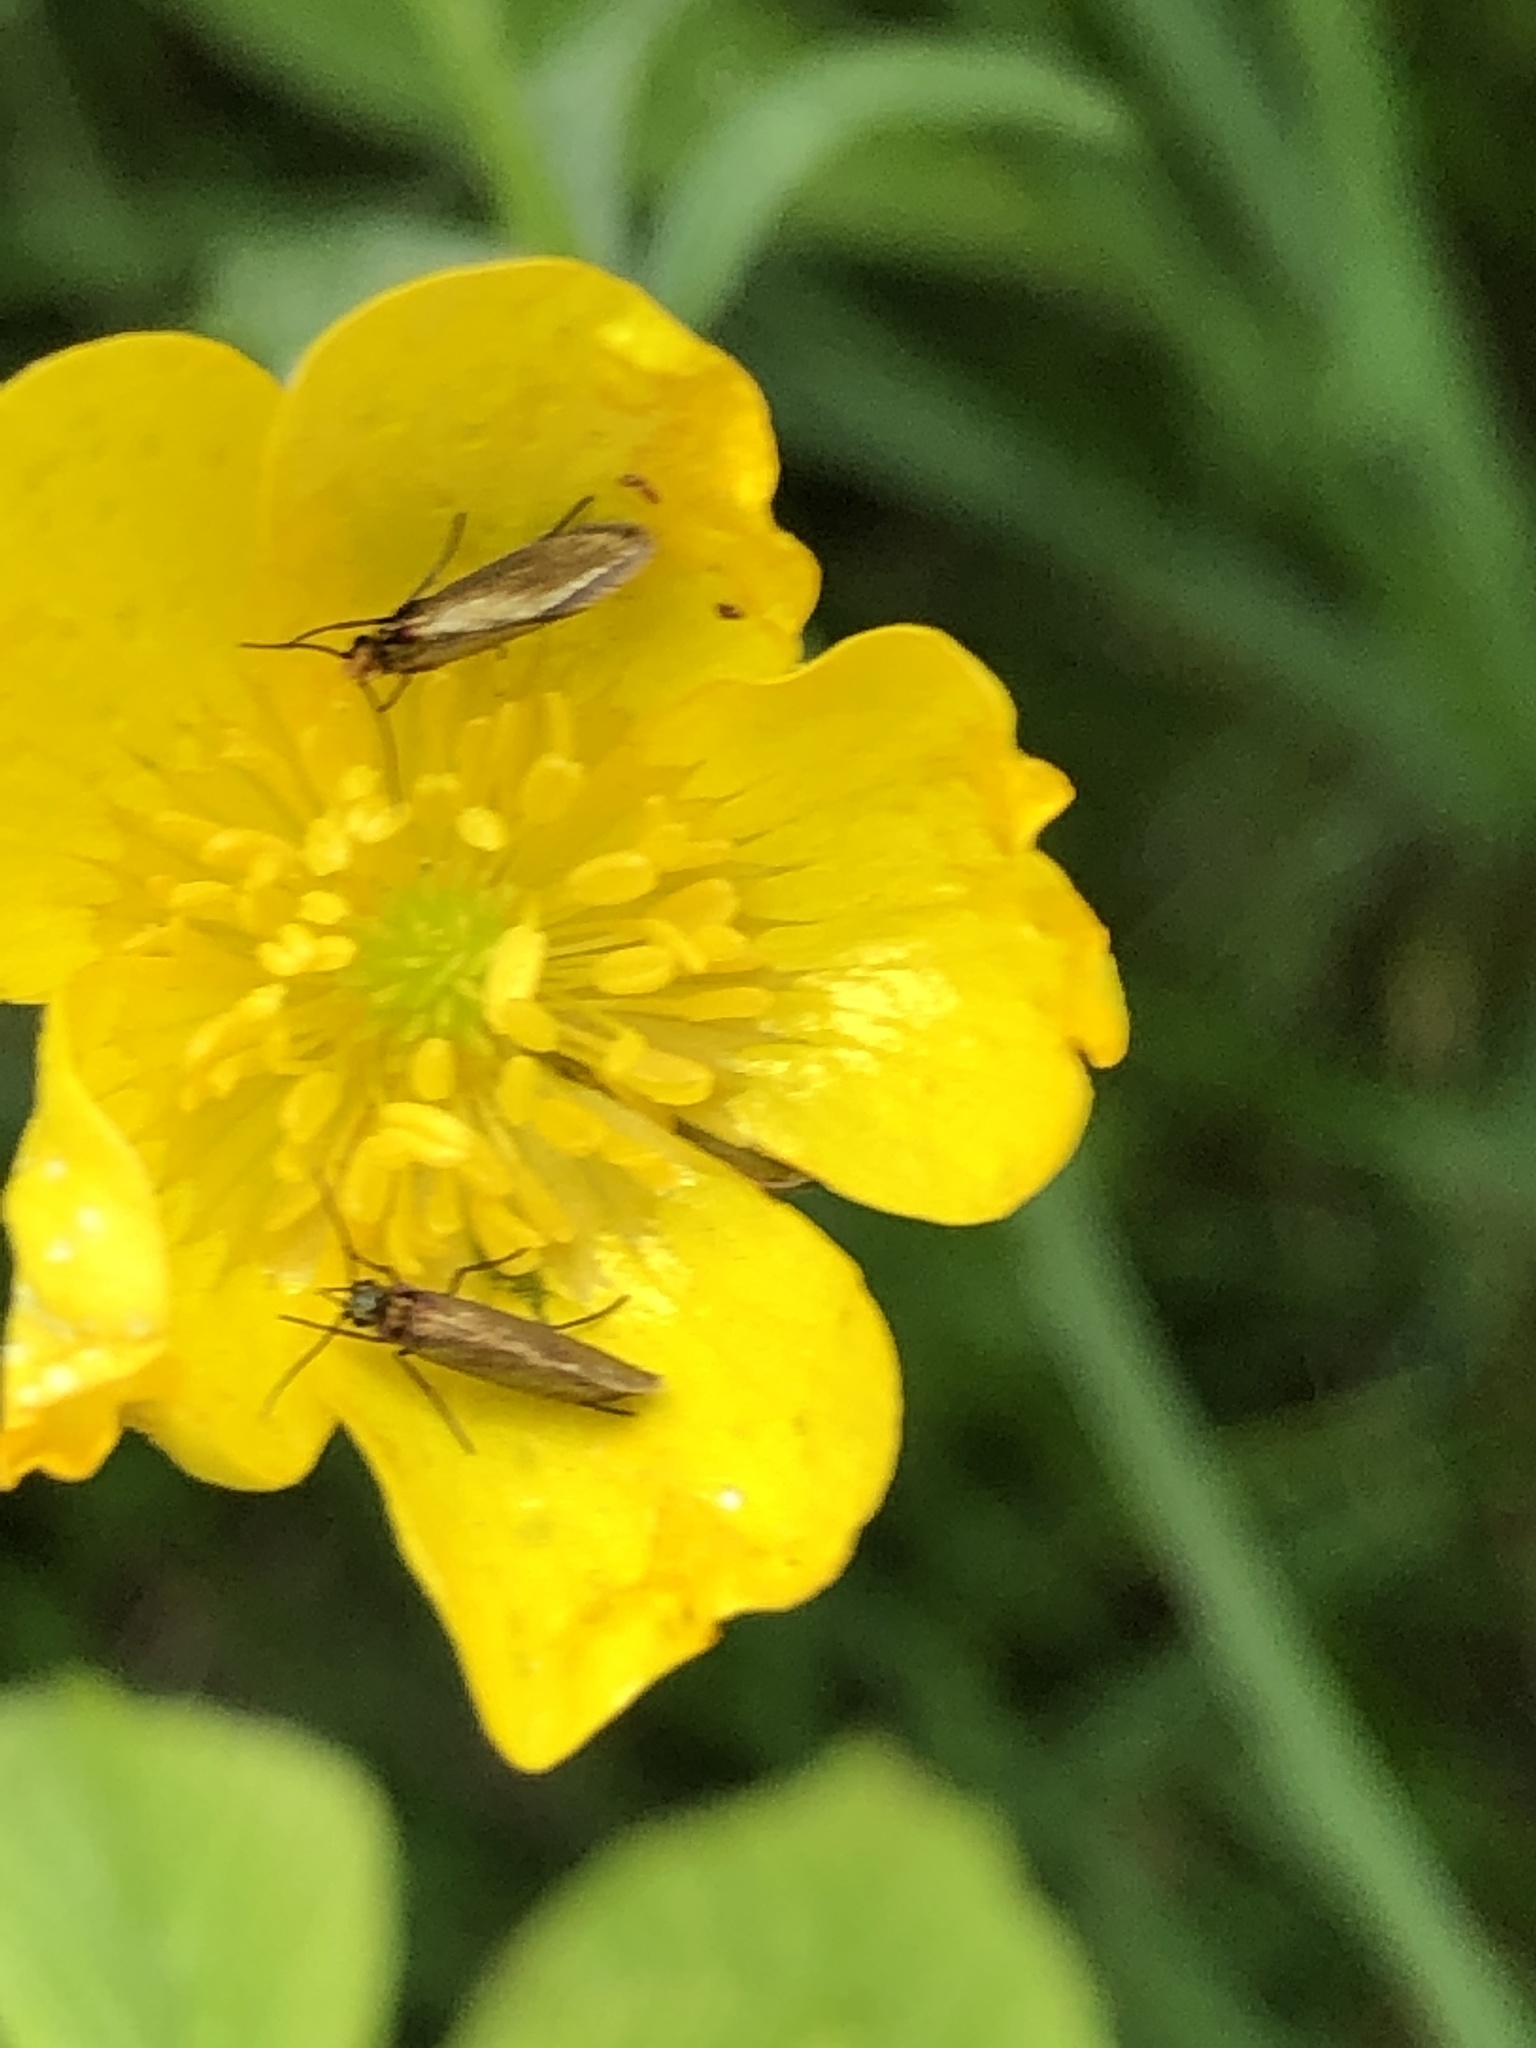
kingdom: Animalia
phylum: Arthropoda
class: Insecta
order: Lepidoptera
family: Micropterigidae
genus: Micropterix
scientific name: Micropterix calthella
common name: Plain gold
